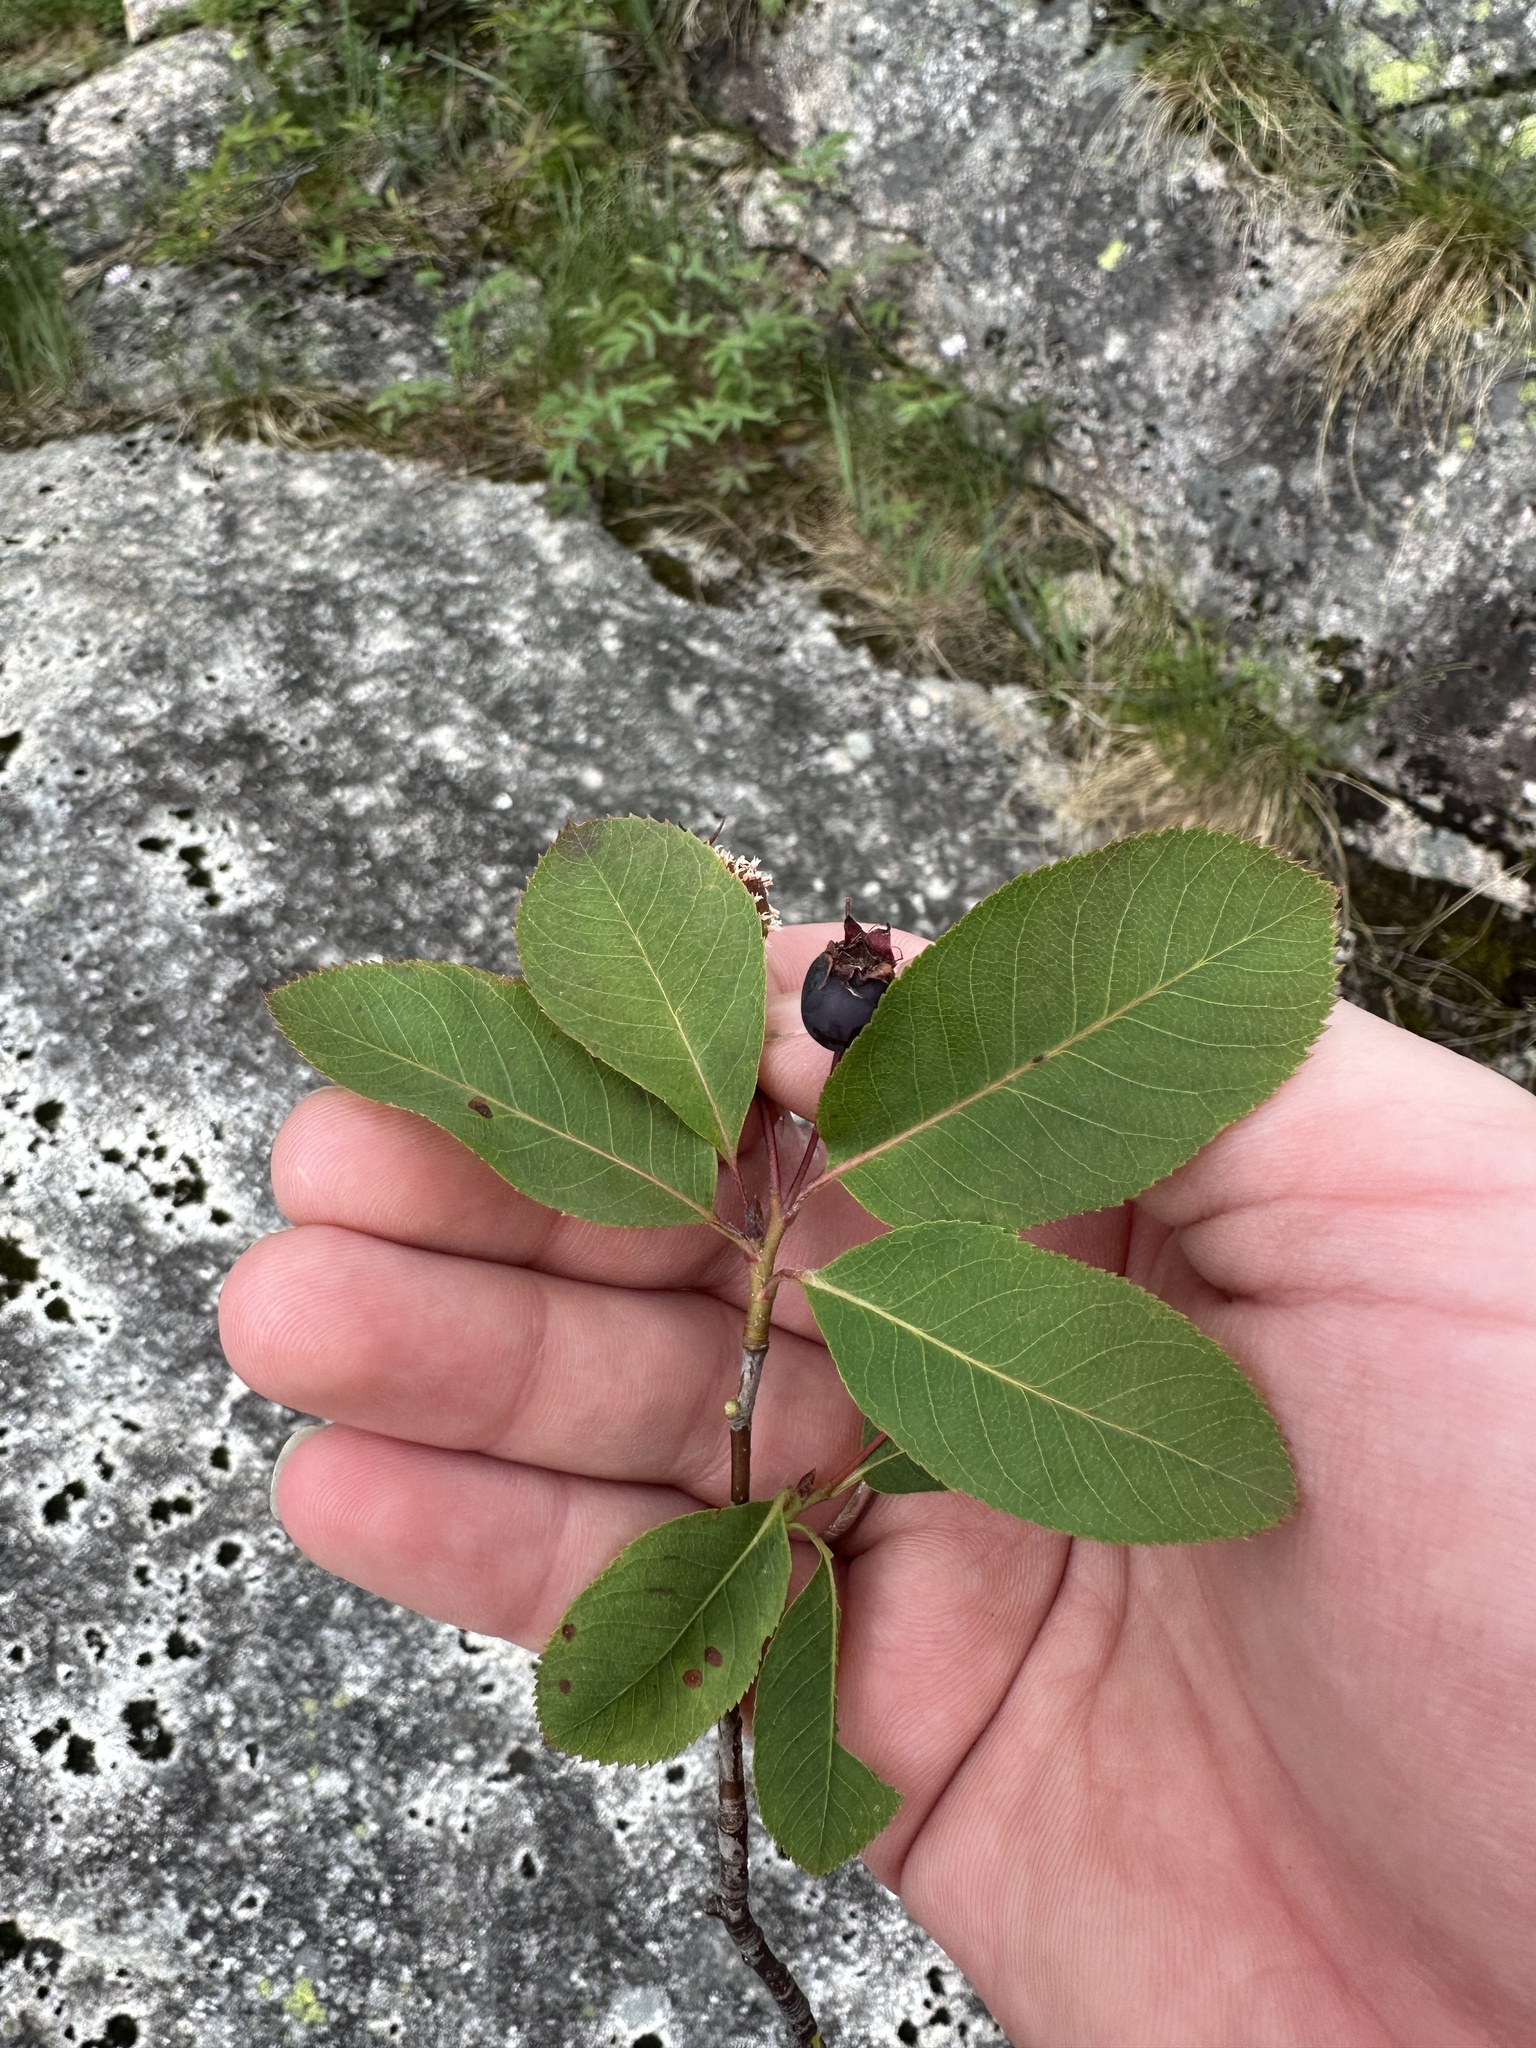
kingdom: Plantae
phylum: Tracheophyta
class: Magnoliopsida
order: Rosales
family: Rosaceae
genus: Amelanchier
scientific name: Amelanchier bartramiana
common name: Mountain serviceberry
